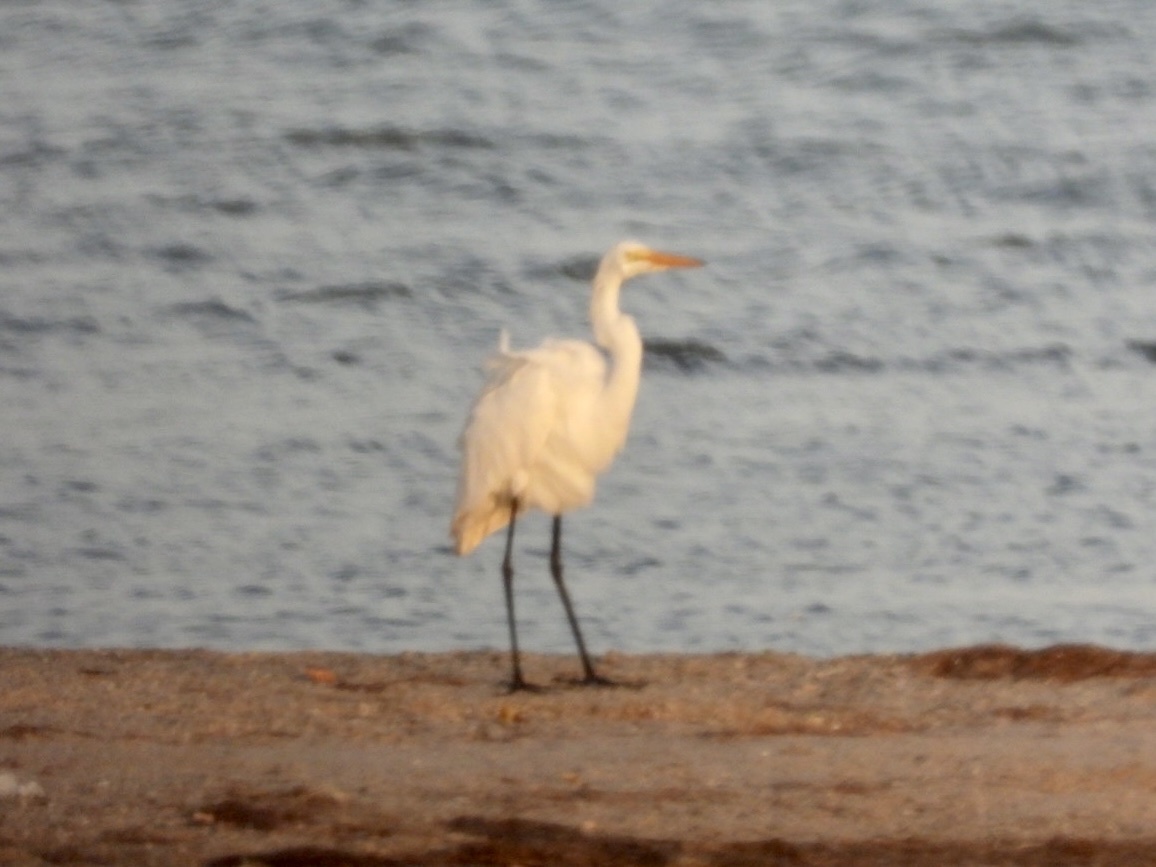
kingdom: Animalia
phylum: Chordata
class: Aves
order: Pelecaniformes
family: Ardeidae
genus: Ardea
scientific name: Ardea alba
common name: Great egret
